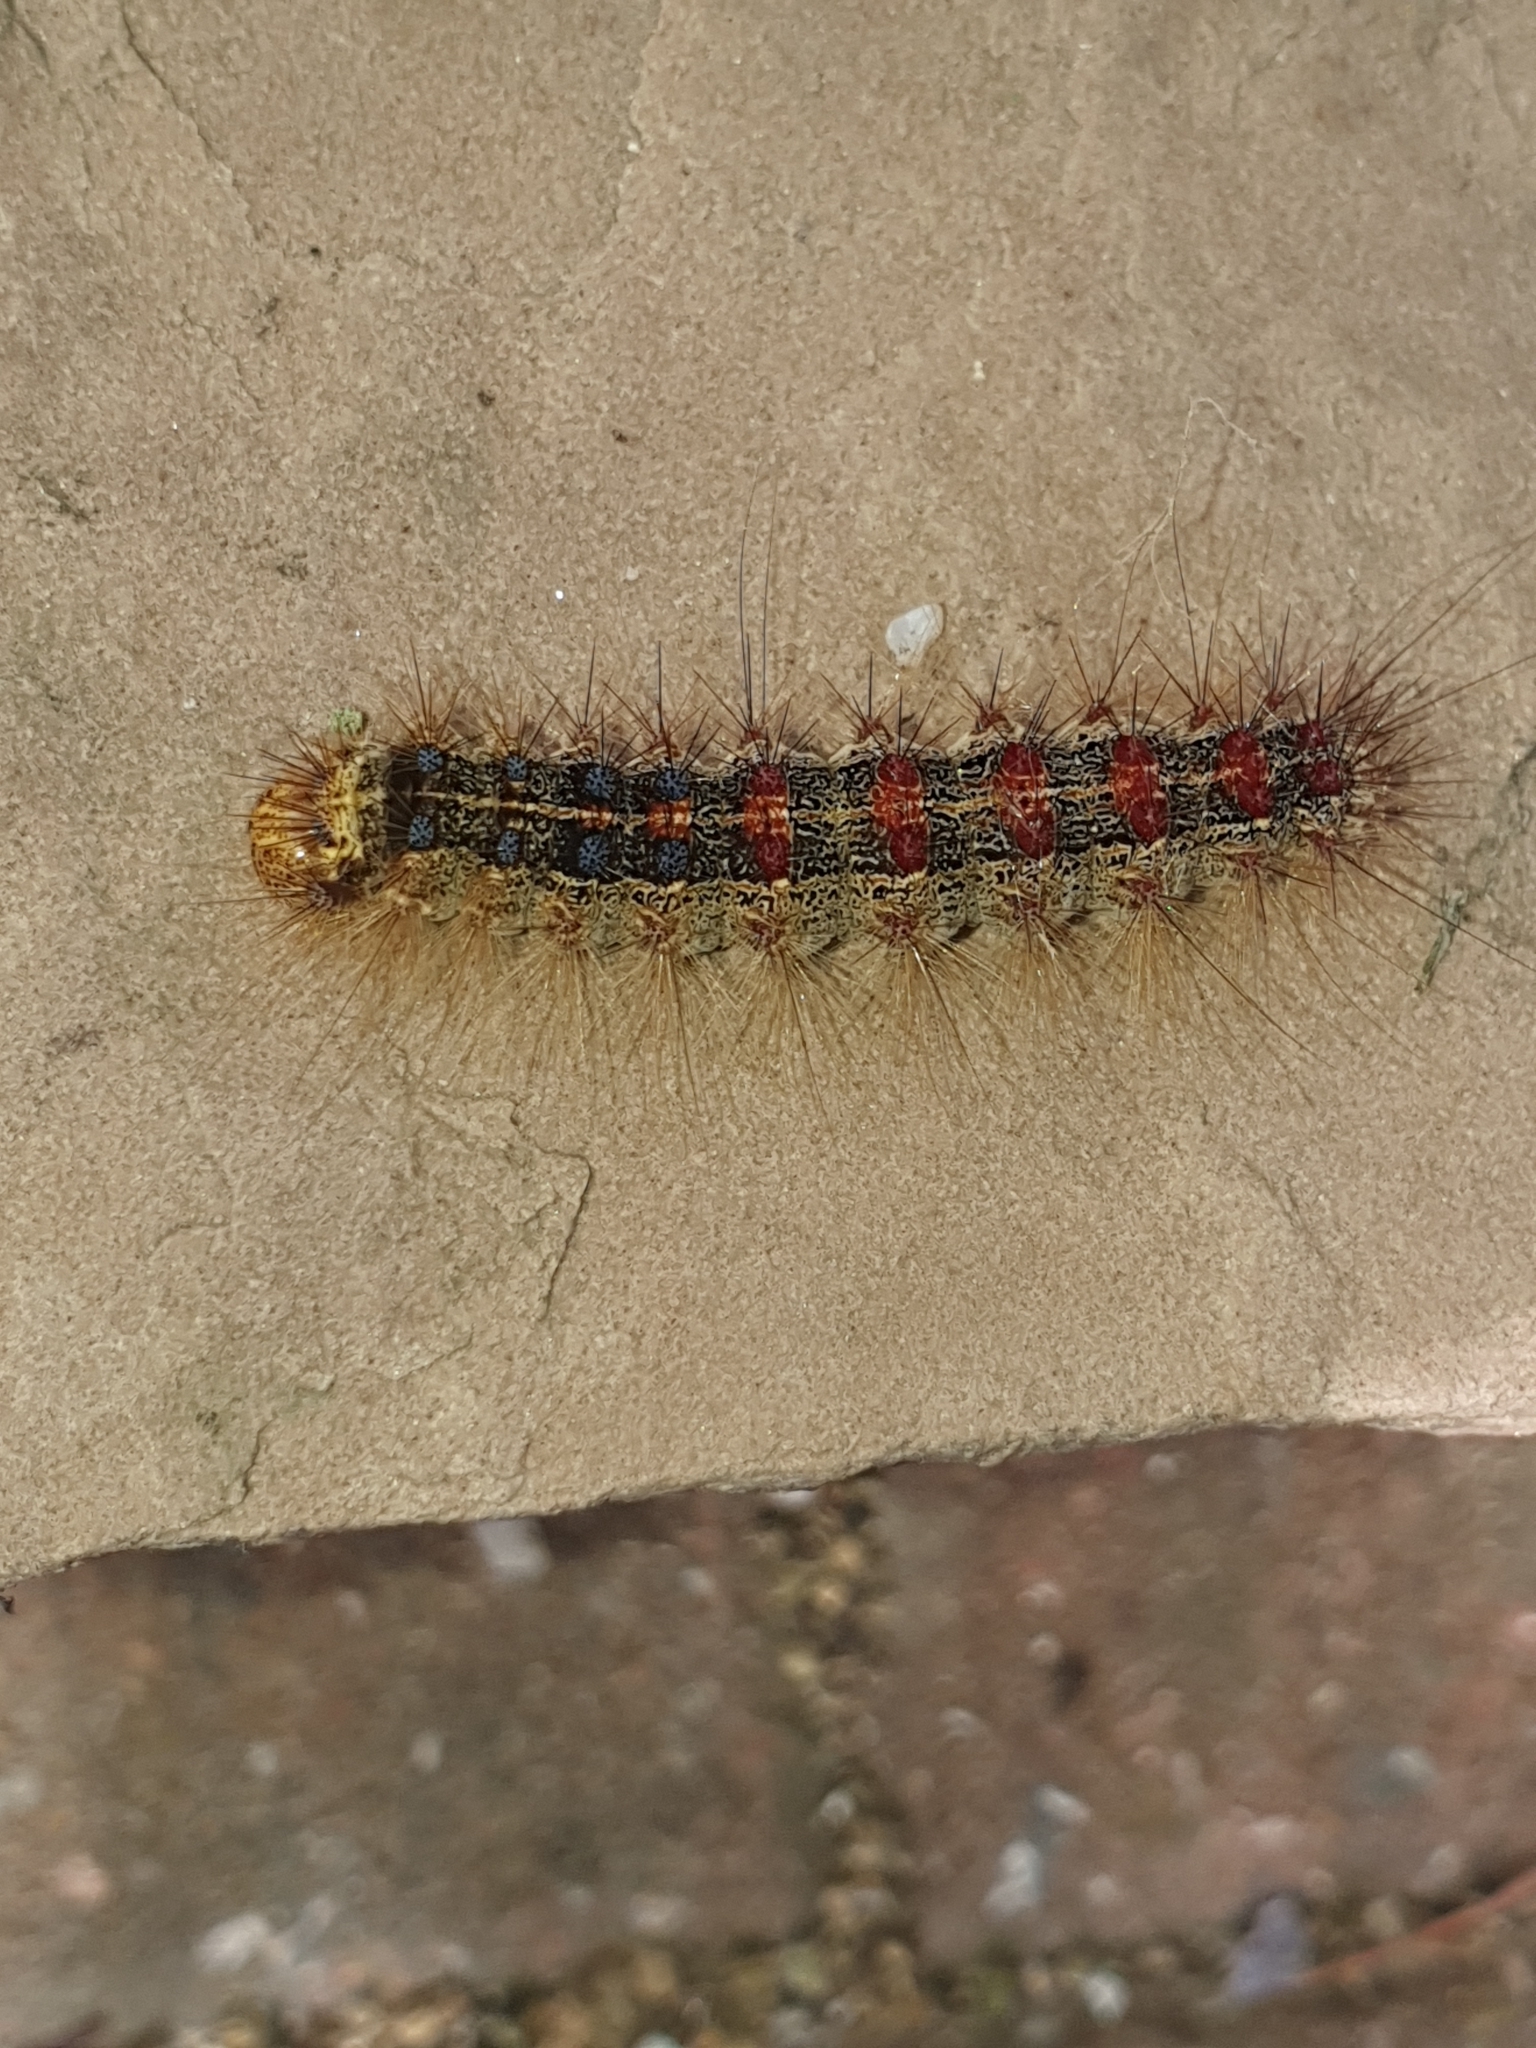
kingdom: Animalia
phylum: Arthropoda
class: Insecta
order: Lepidoptera
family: Erebidae
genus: Lymantria
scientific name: Lymantria dispar
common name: Gypsy moth
